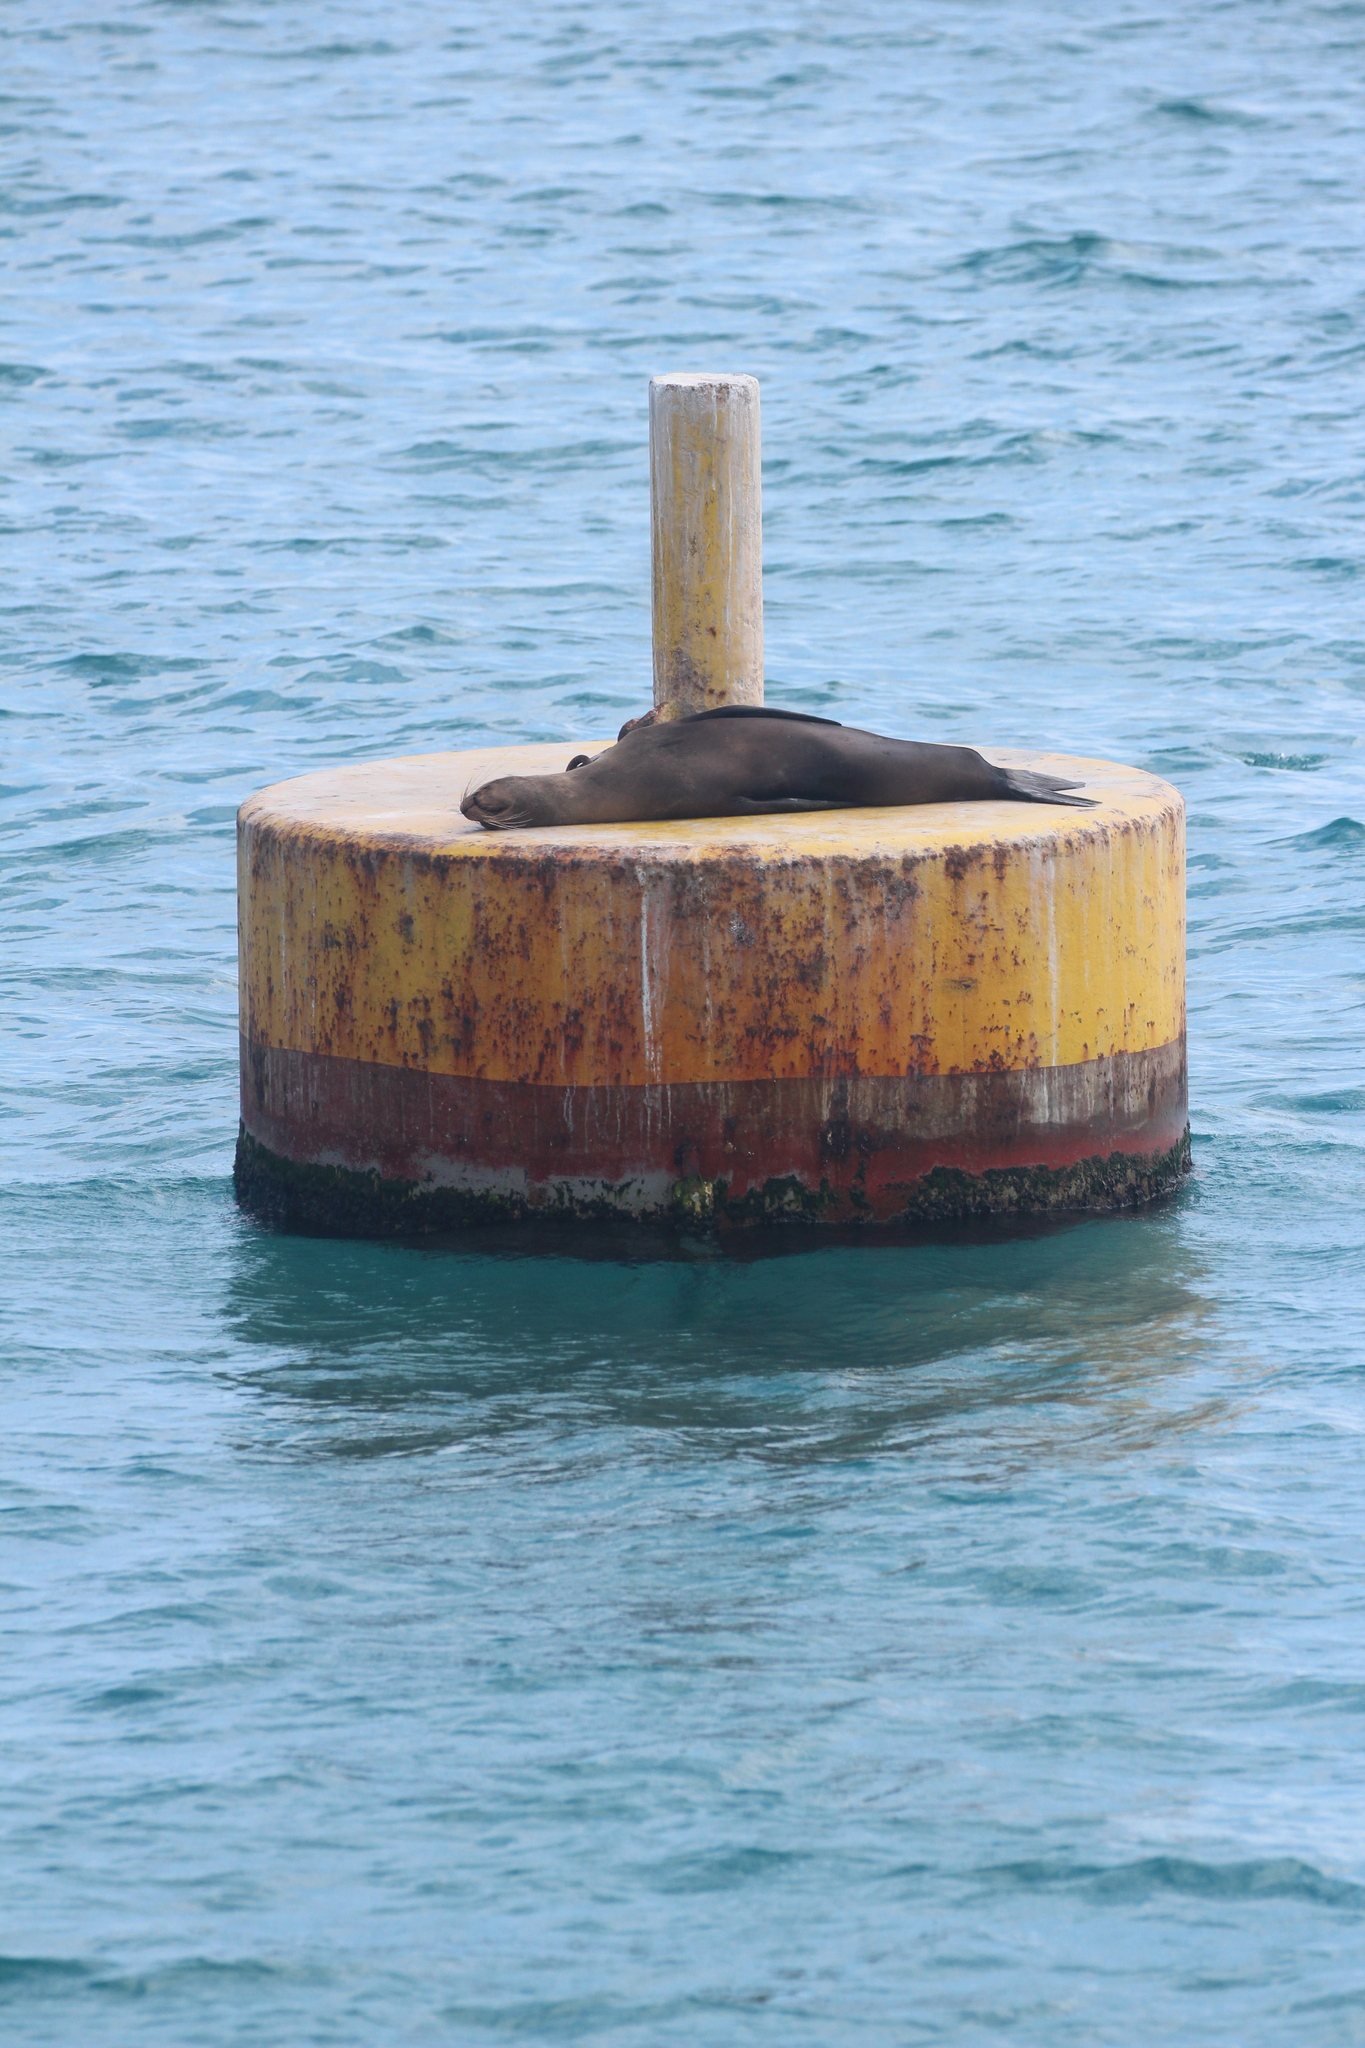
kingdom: Animalia
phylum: Chordata
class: Mammalia
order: Carnivora
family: Otariidae
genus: Zalophus
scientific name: Zalophus wollebaeki
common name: Galapagos sea lion
